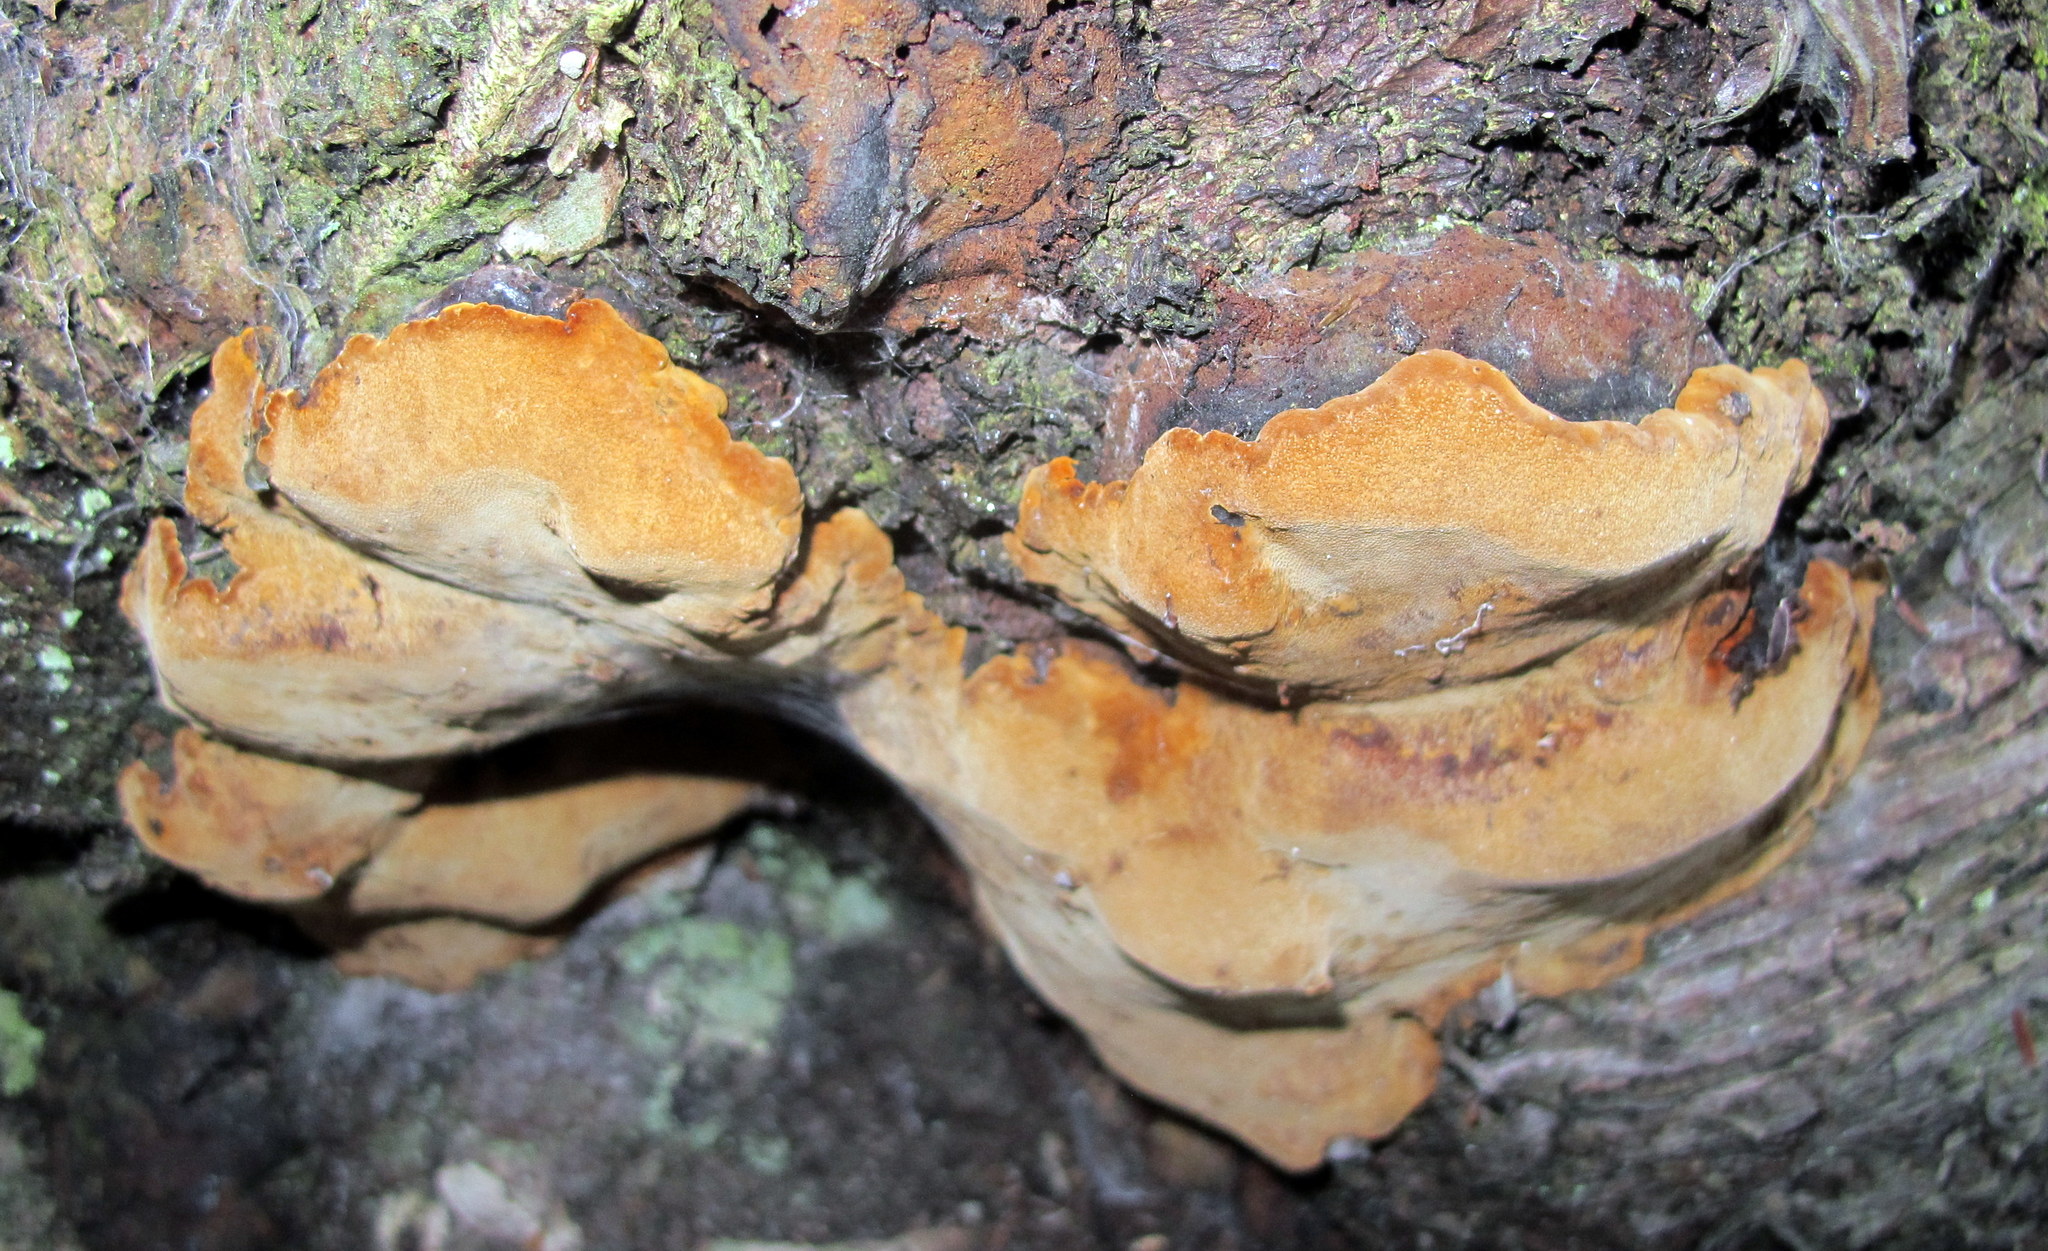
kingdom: Fungi
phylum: Basidiomycota
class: Agaricomycetes
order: Hymenochaetales
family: Hymenochaetaceae
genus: Phellinus
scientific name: Phellinus chrysoloma
